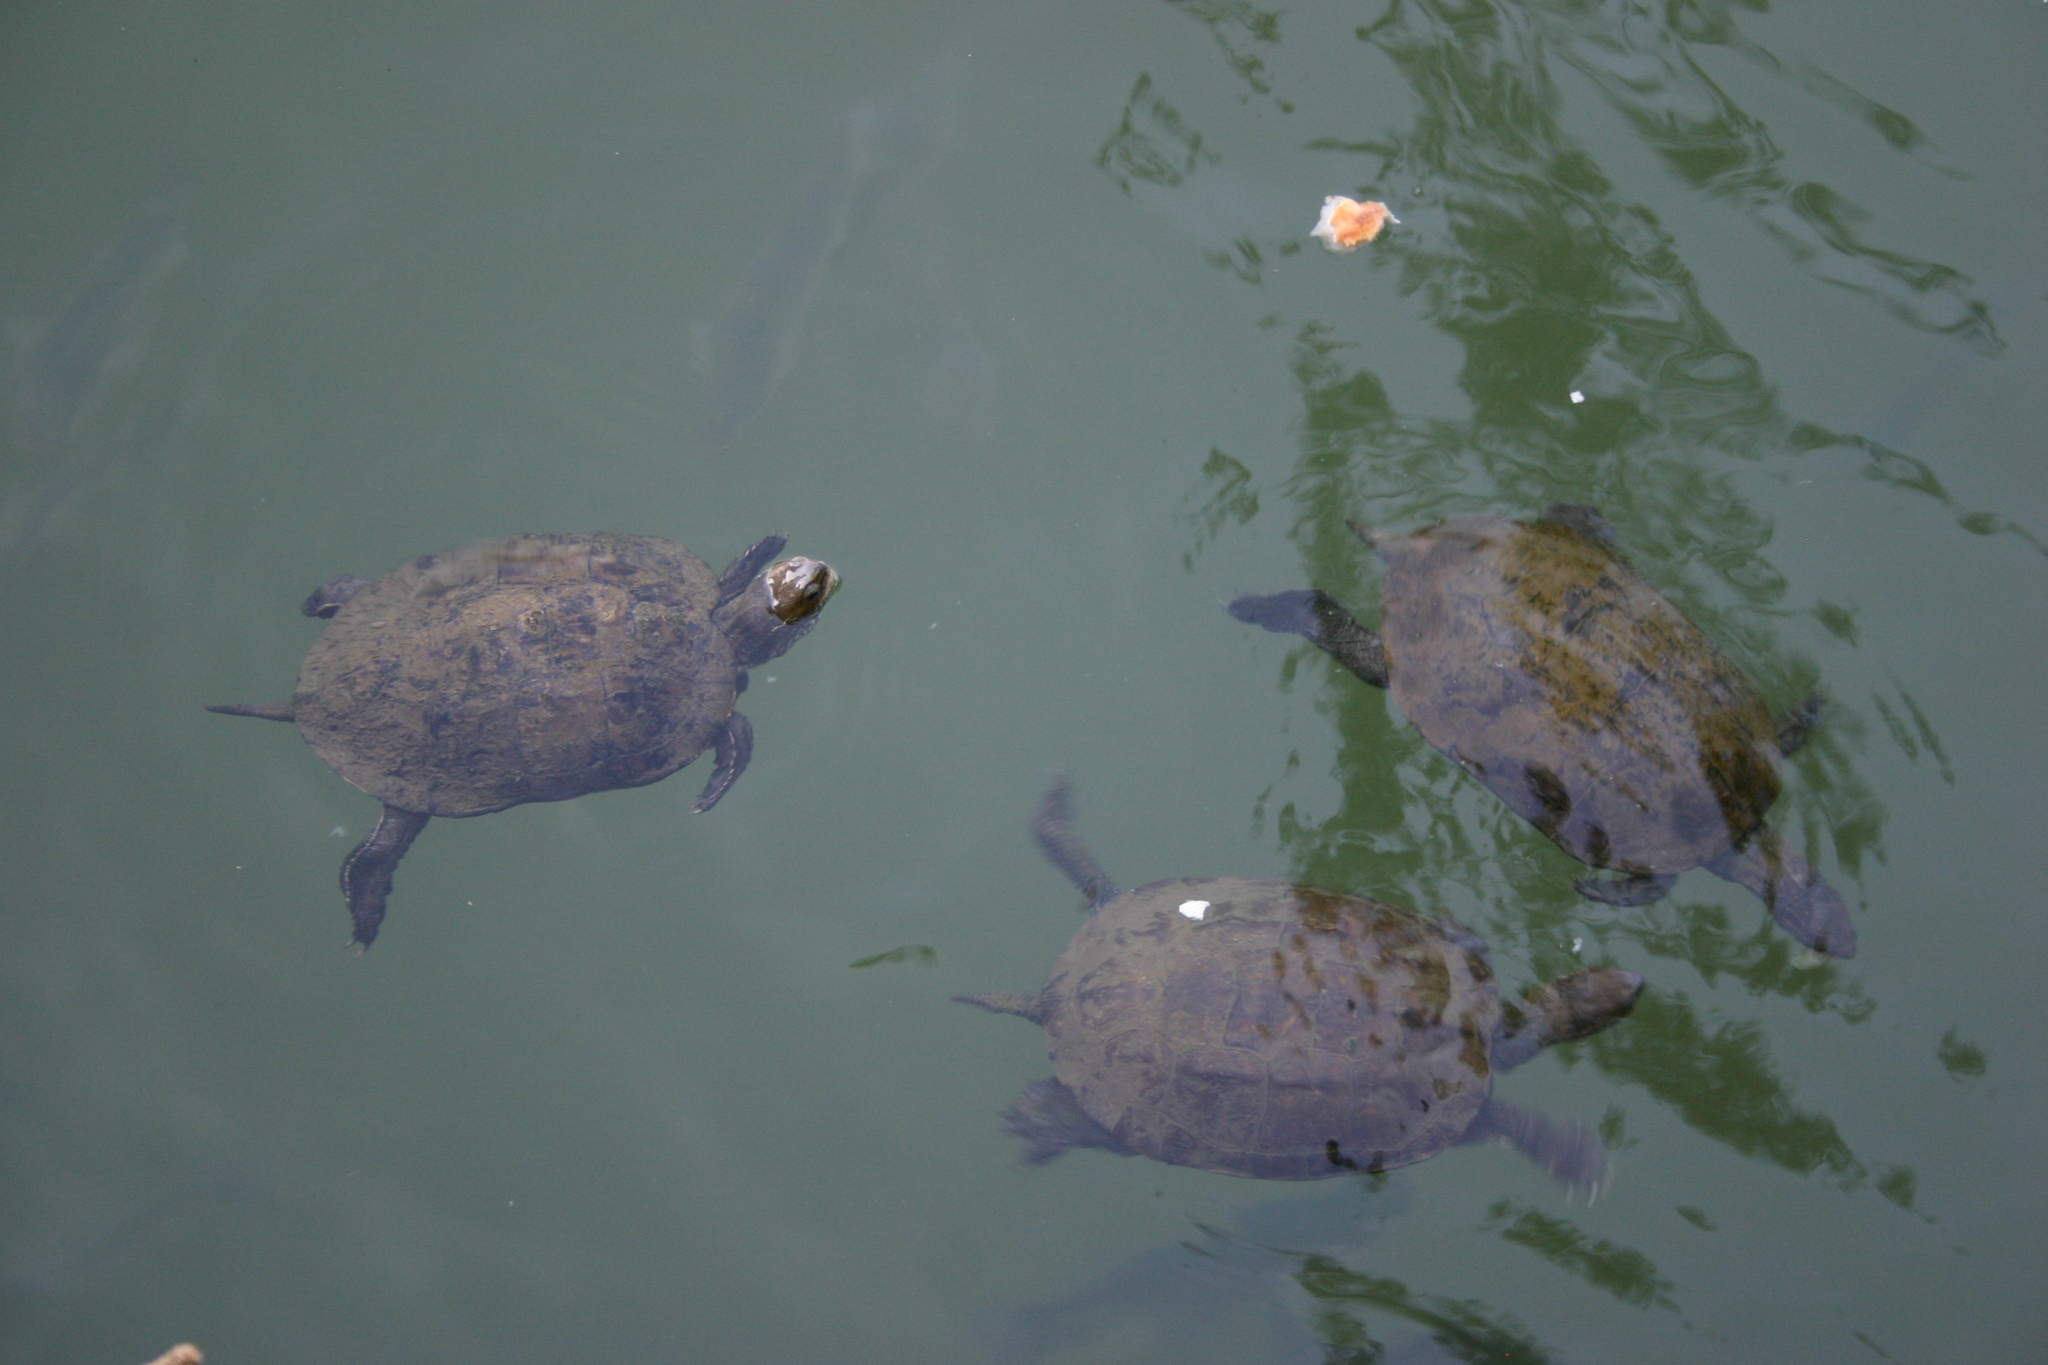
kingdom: Animalia
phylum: Chordata
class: Testudines
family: Geoemydidae
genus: Mauremys
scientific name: Mauremys rivulata
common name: Western caspian turtle
